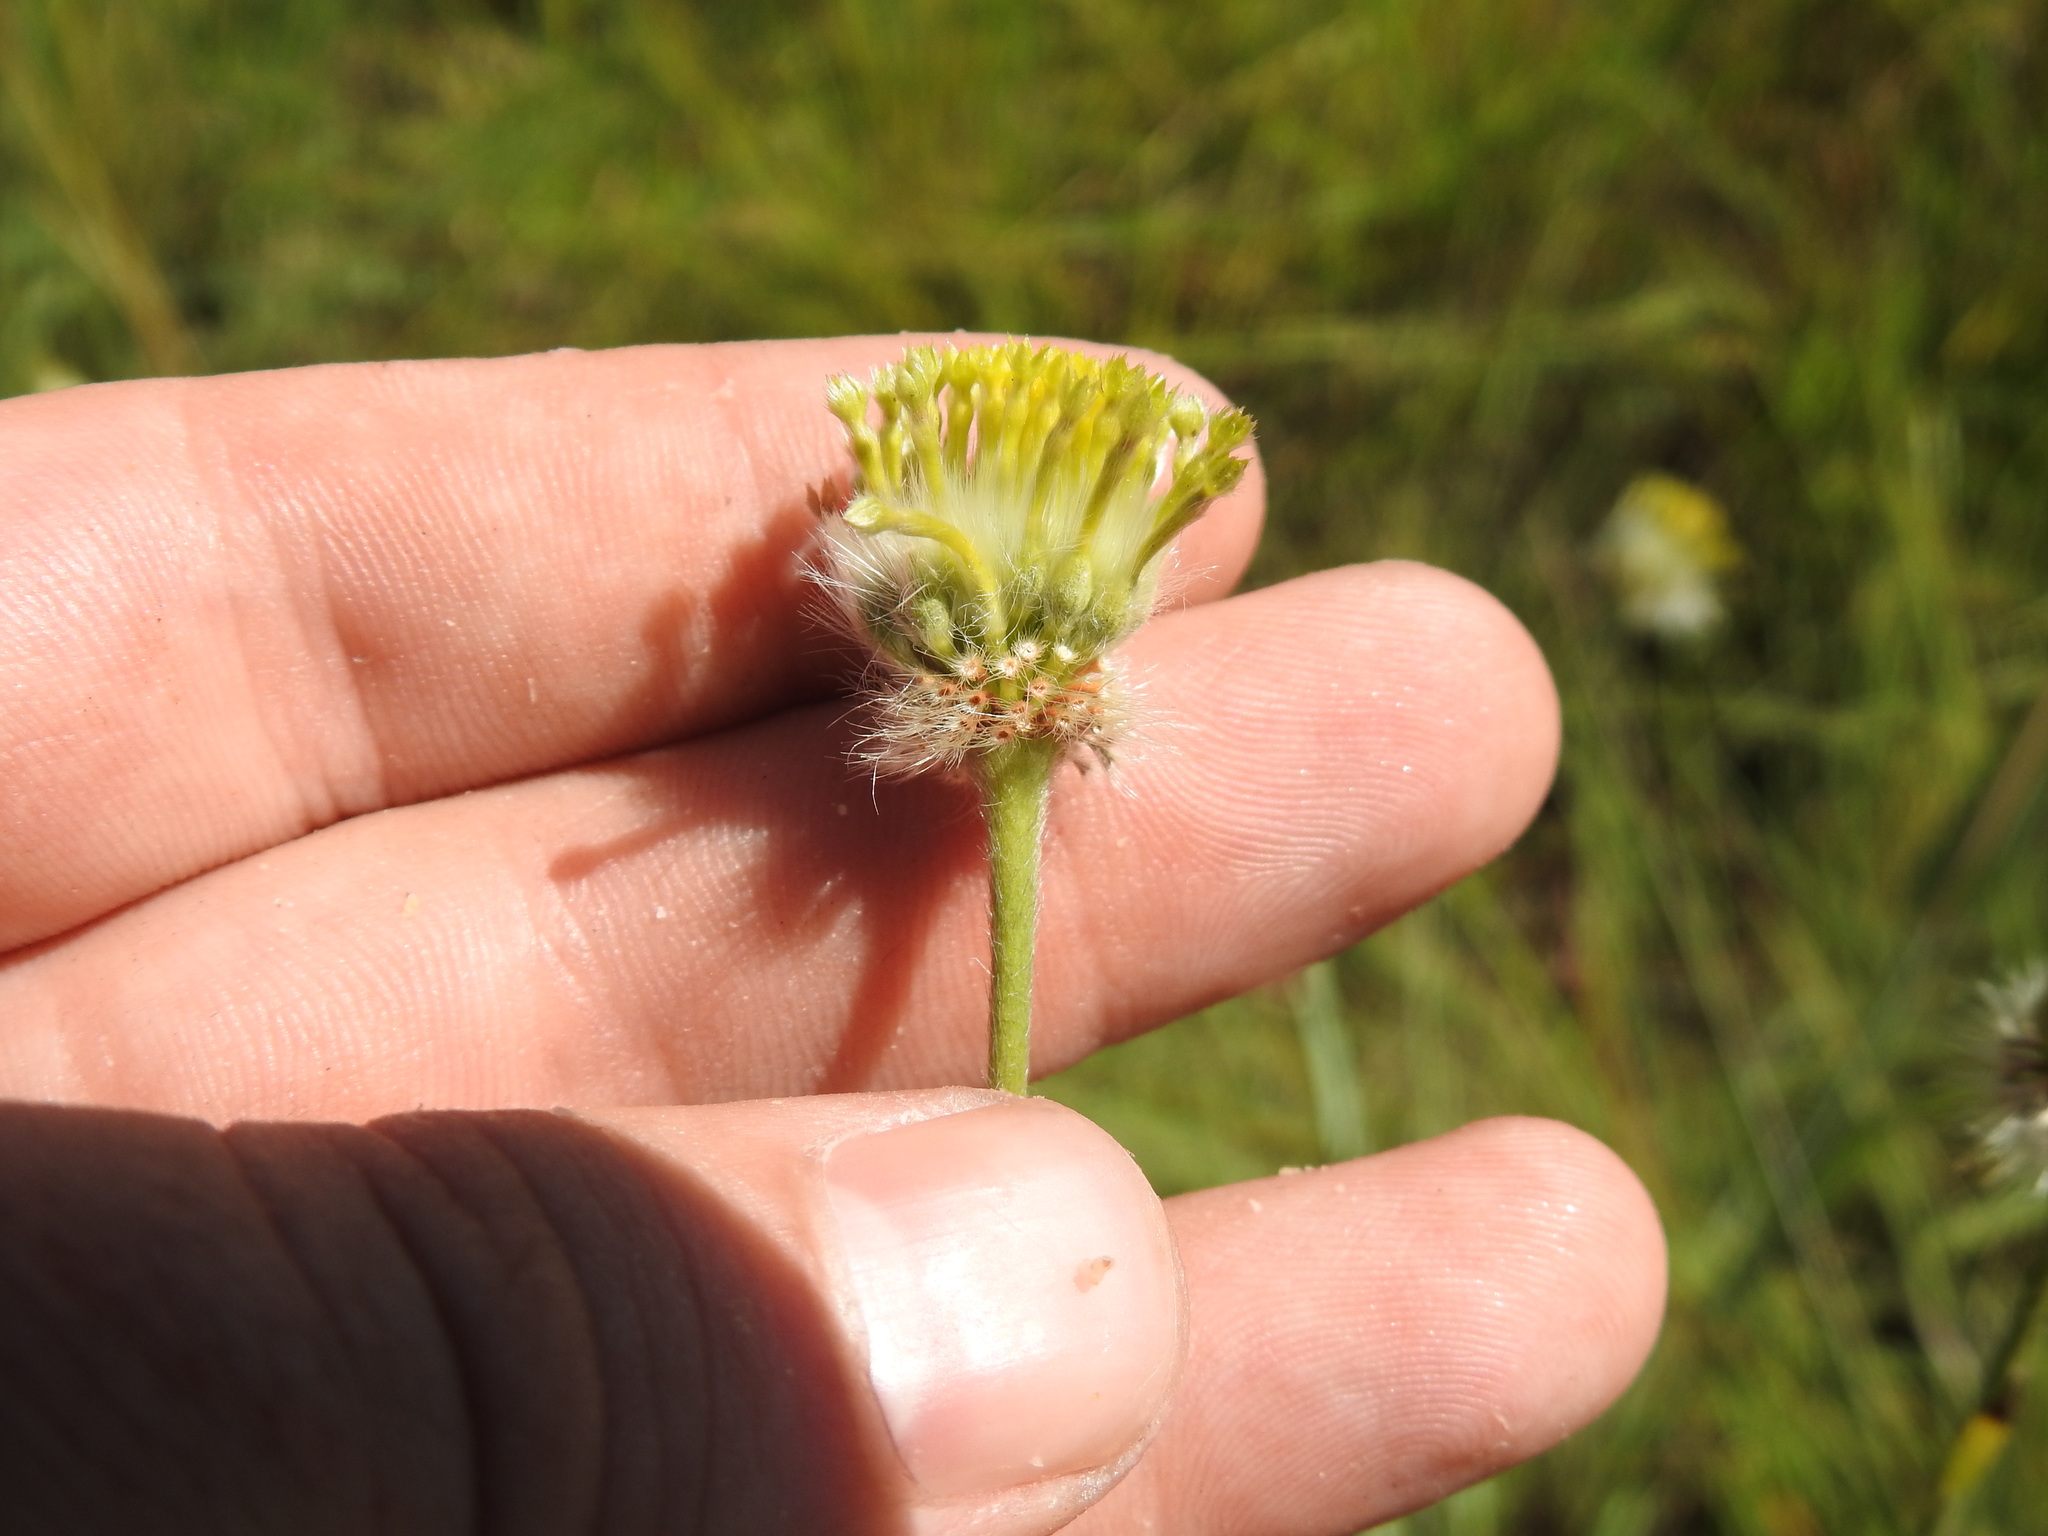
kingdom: Plantae
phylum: Tracheophyta
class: Magnoliopsida
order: Malvales
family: Thymelaeaceae
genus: Gnidia
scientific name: Gnidia sericocephala
